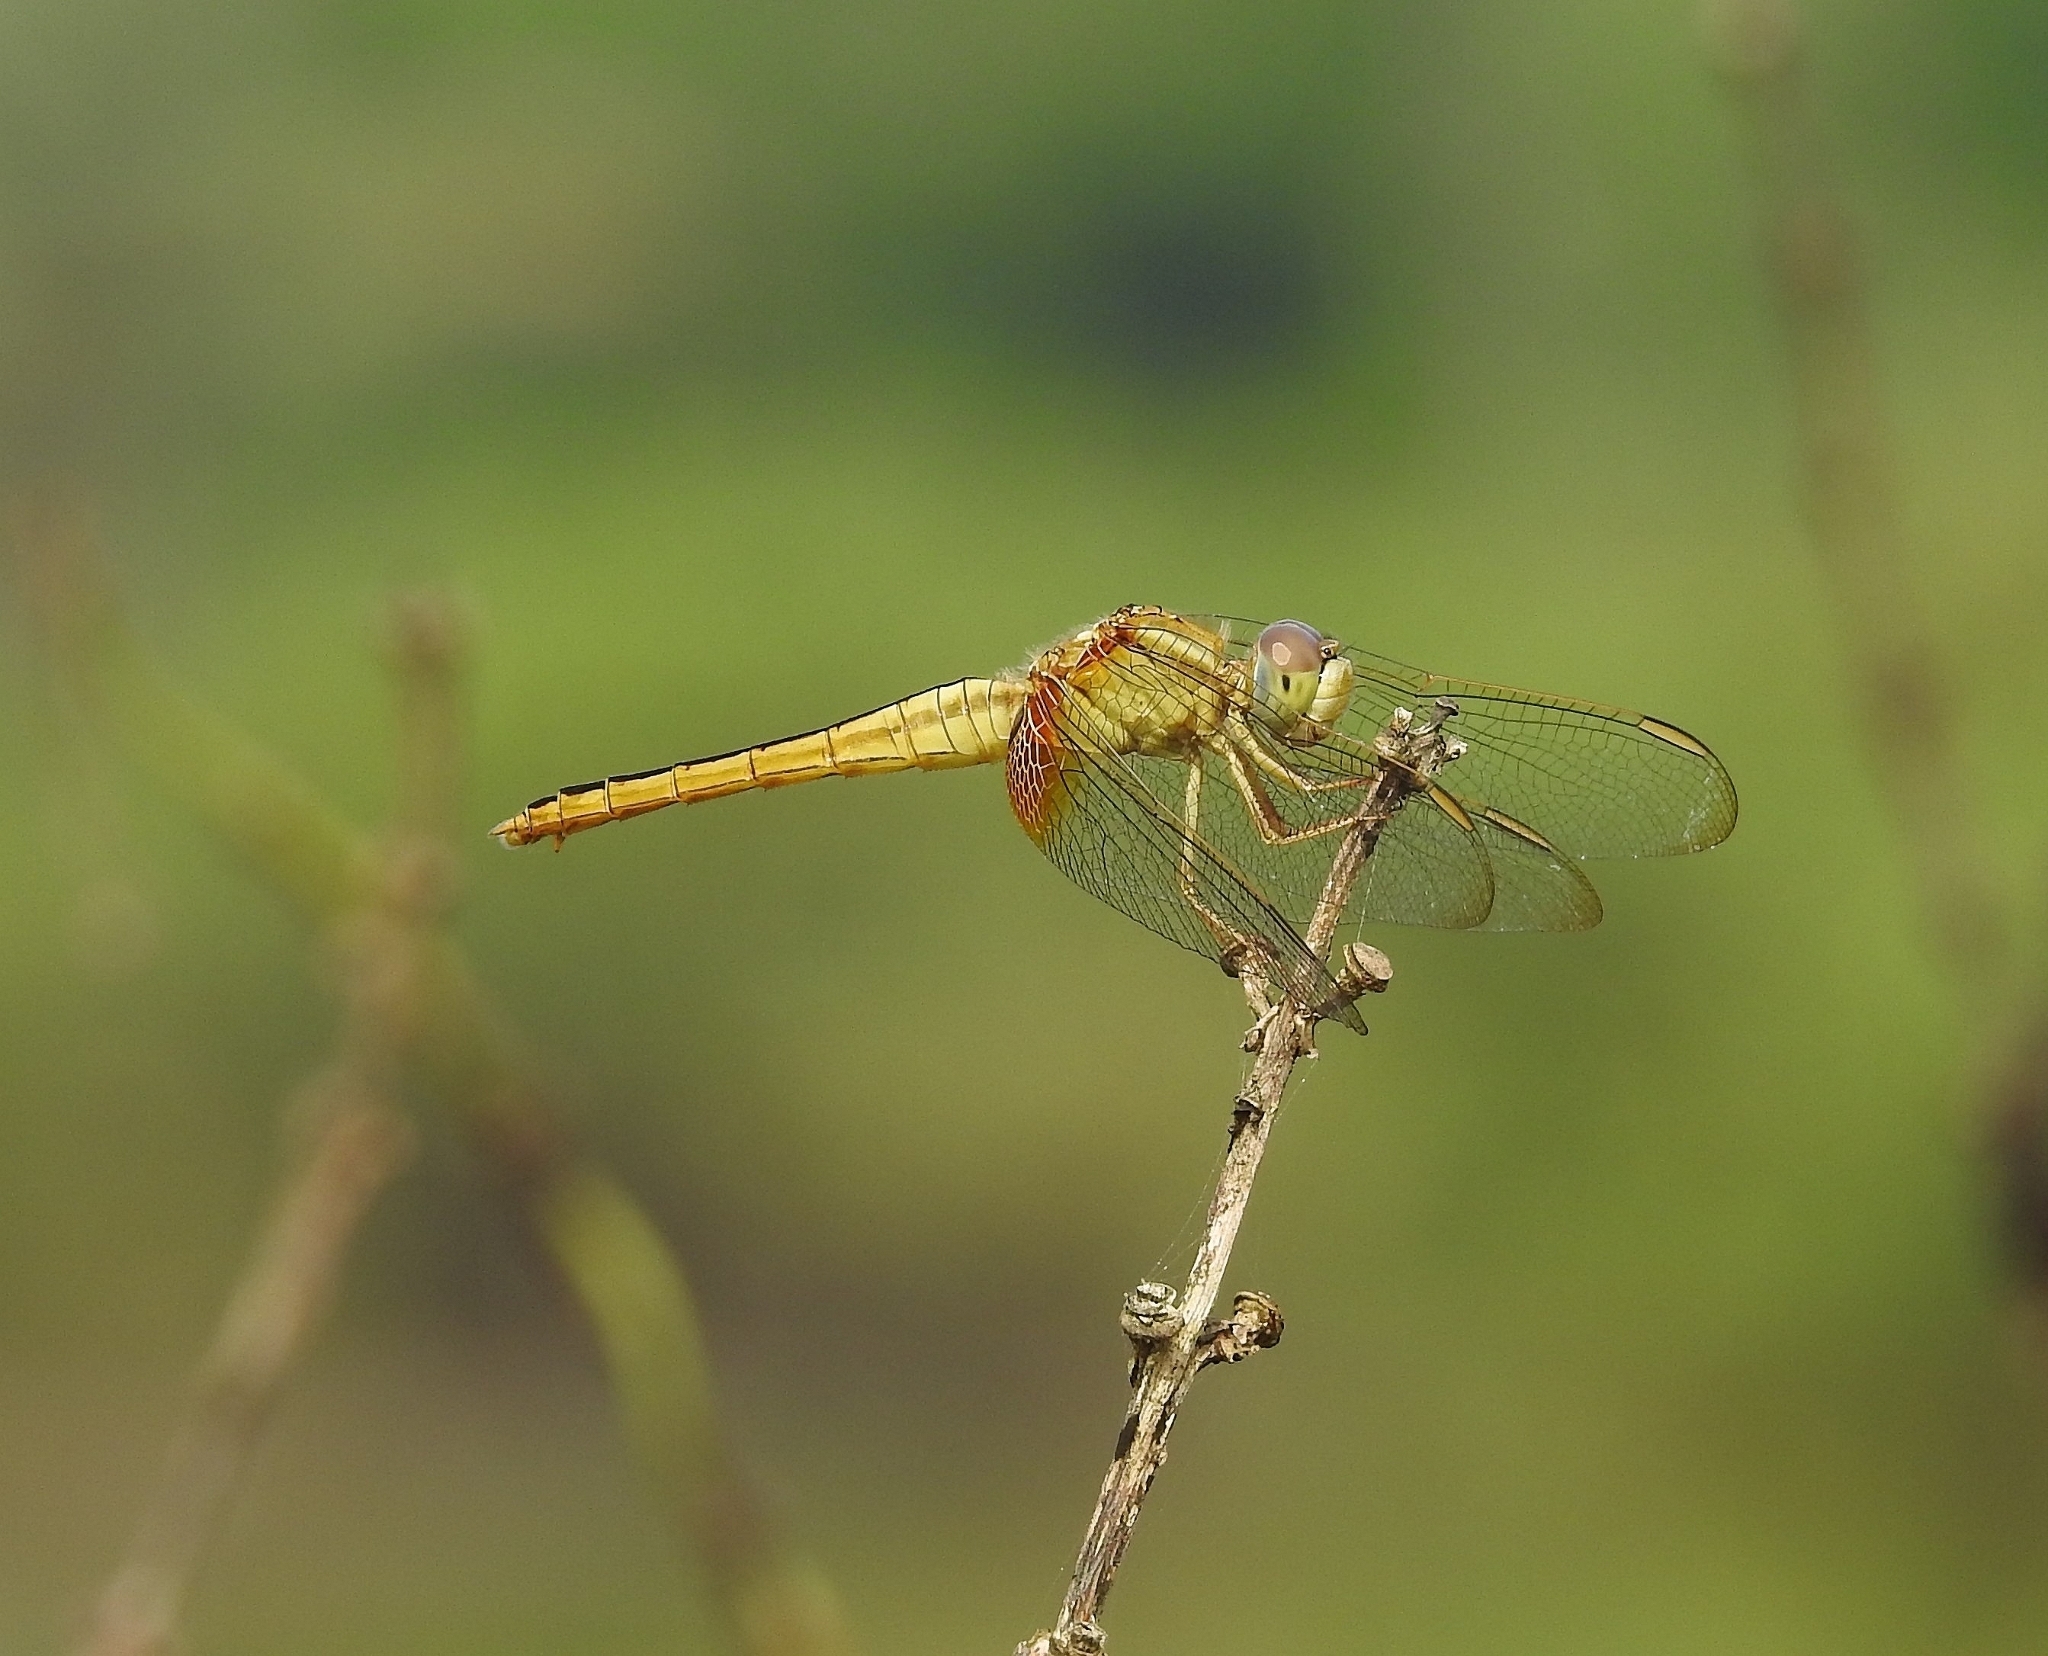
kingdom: Animalia
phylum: Arthropoda
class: Insecta
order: Odonata
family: Libellulidae
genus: Crocothemis
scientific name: Crocothemis servilia
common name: Scarlet skimmer
